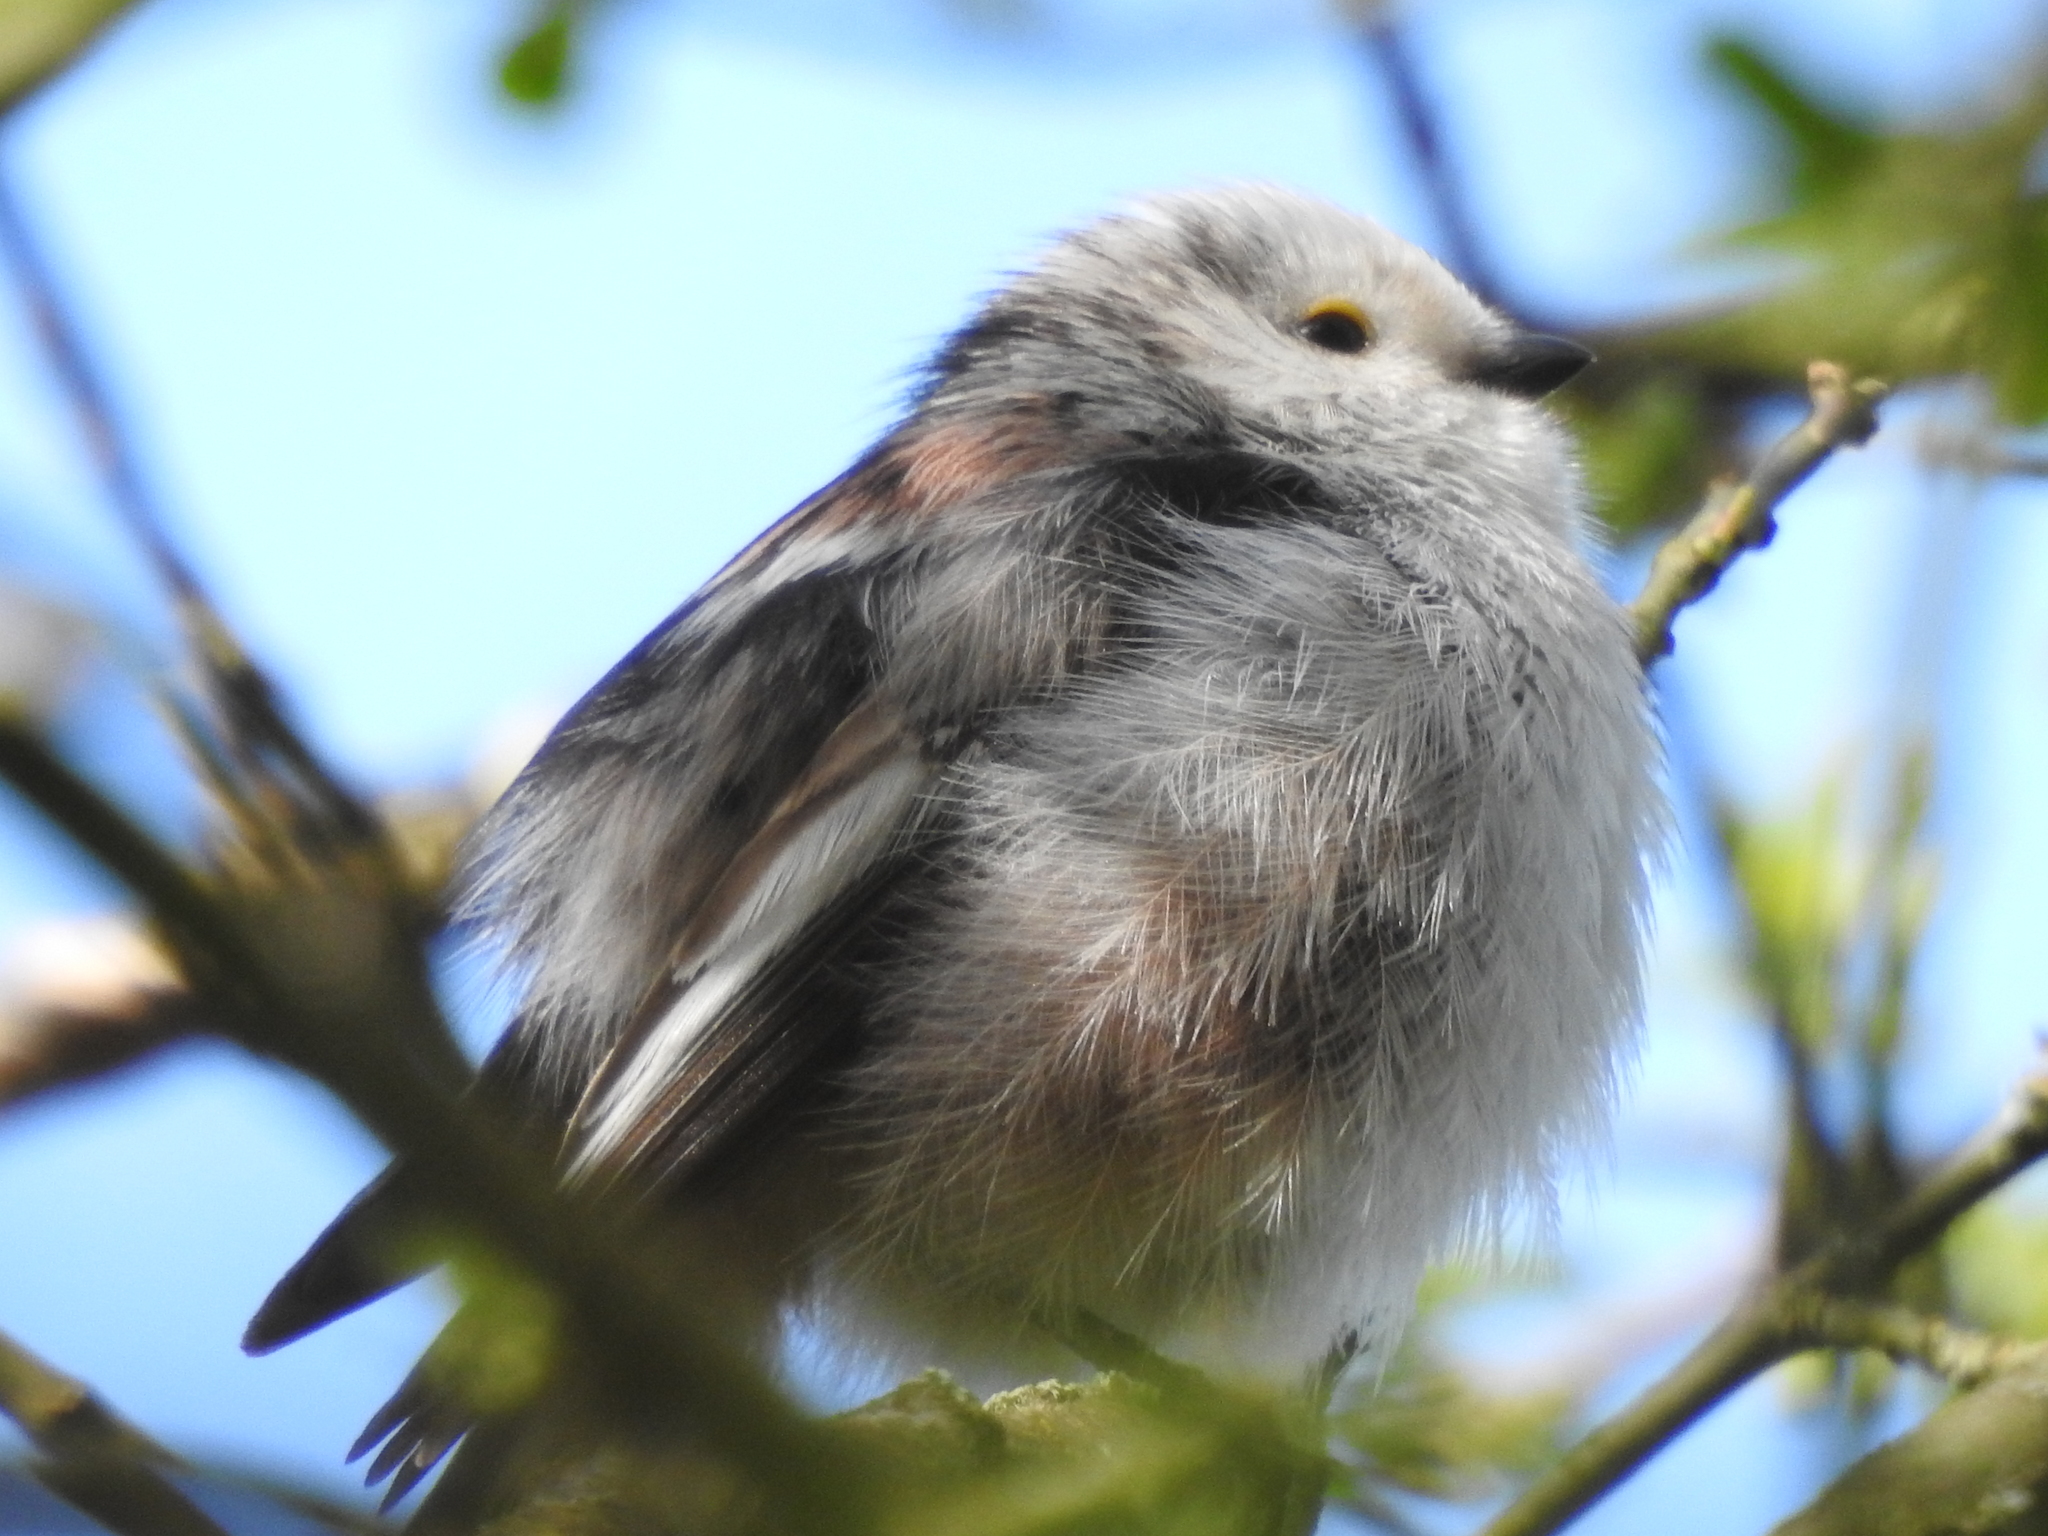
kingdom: Animalia
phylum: Chordata
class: Aves
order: Passeriformes
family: Aegithalidae
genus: Aegithalos
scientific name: Aegithalos caudatus
